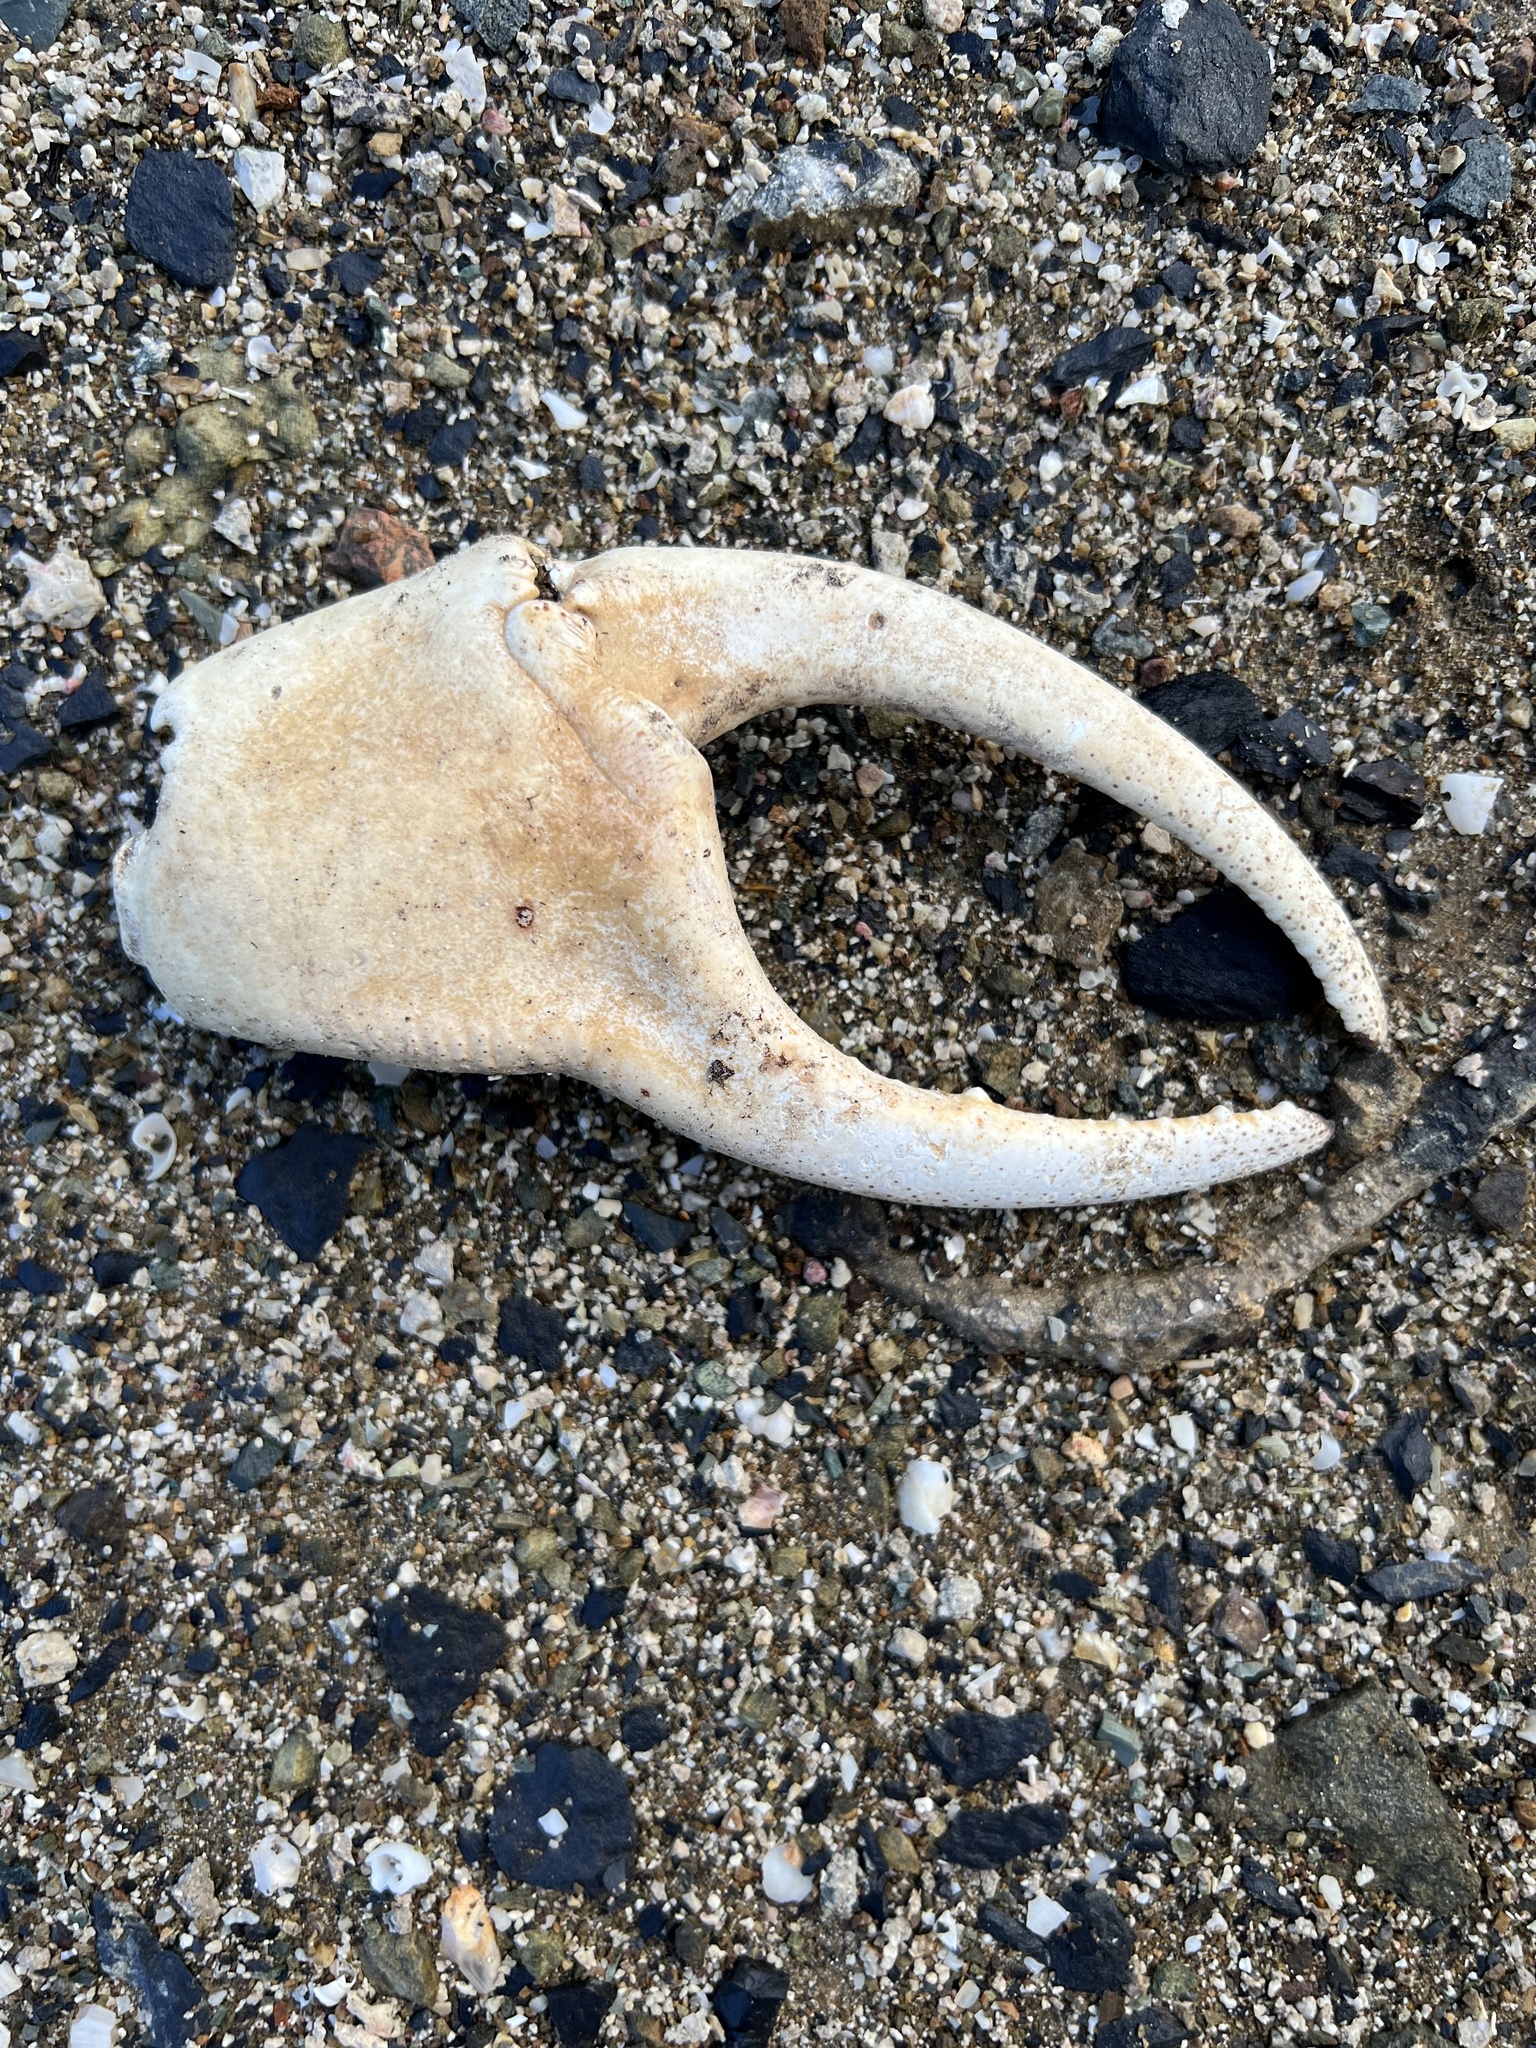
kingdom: Animalia
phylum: Arthropoda
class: Malacostraca
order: Decapoda
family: Gecarcinidae
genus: Cardisoma
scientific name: Cardisoma guanhumi
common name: Great land crab
